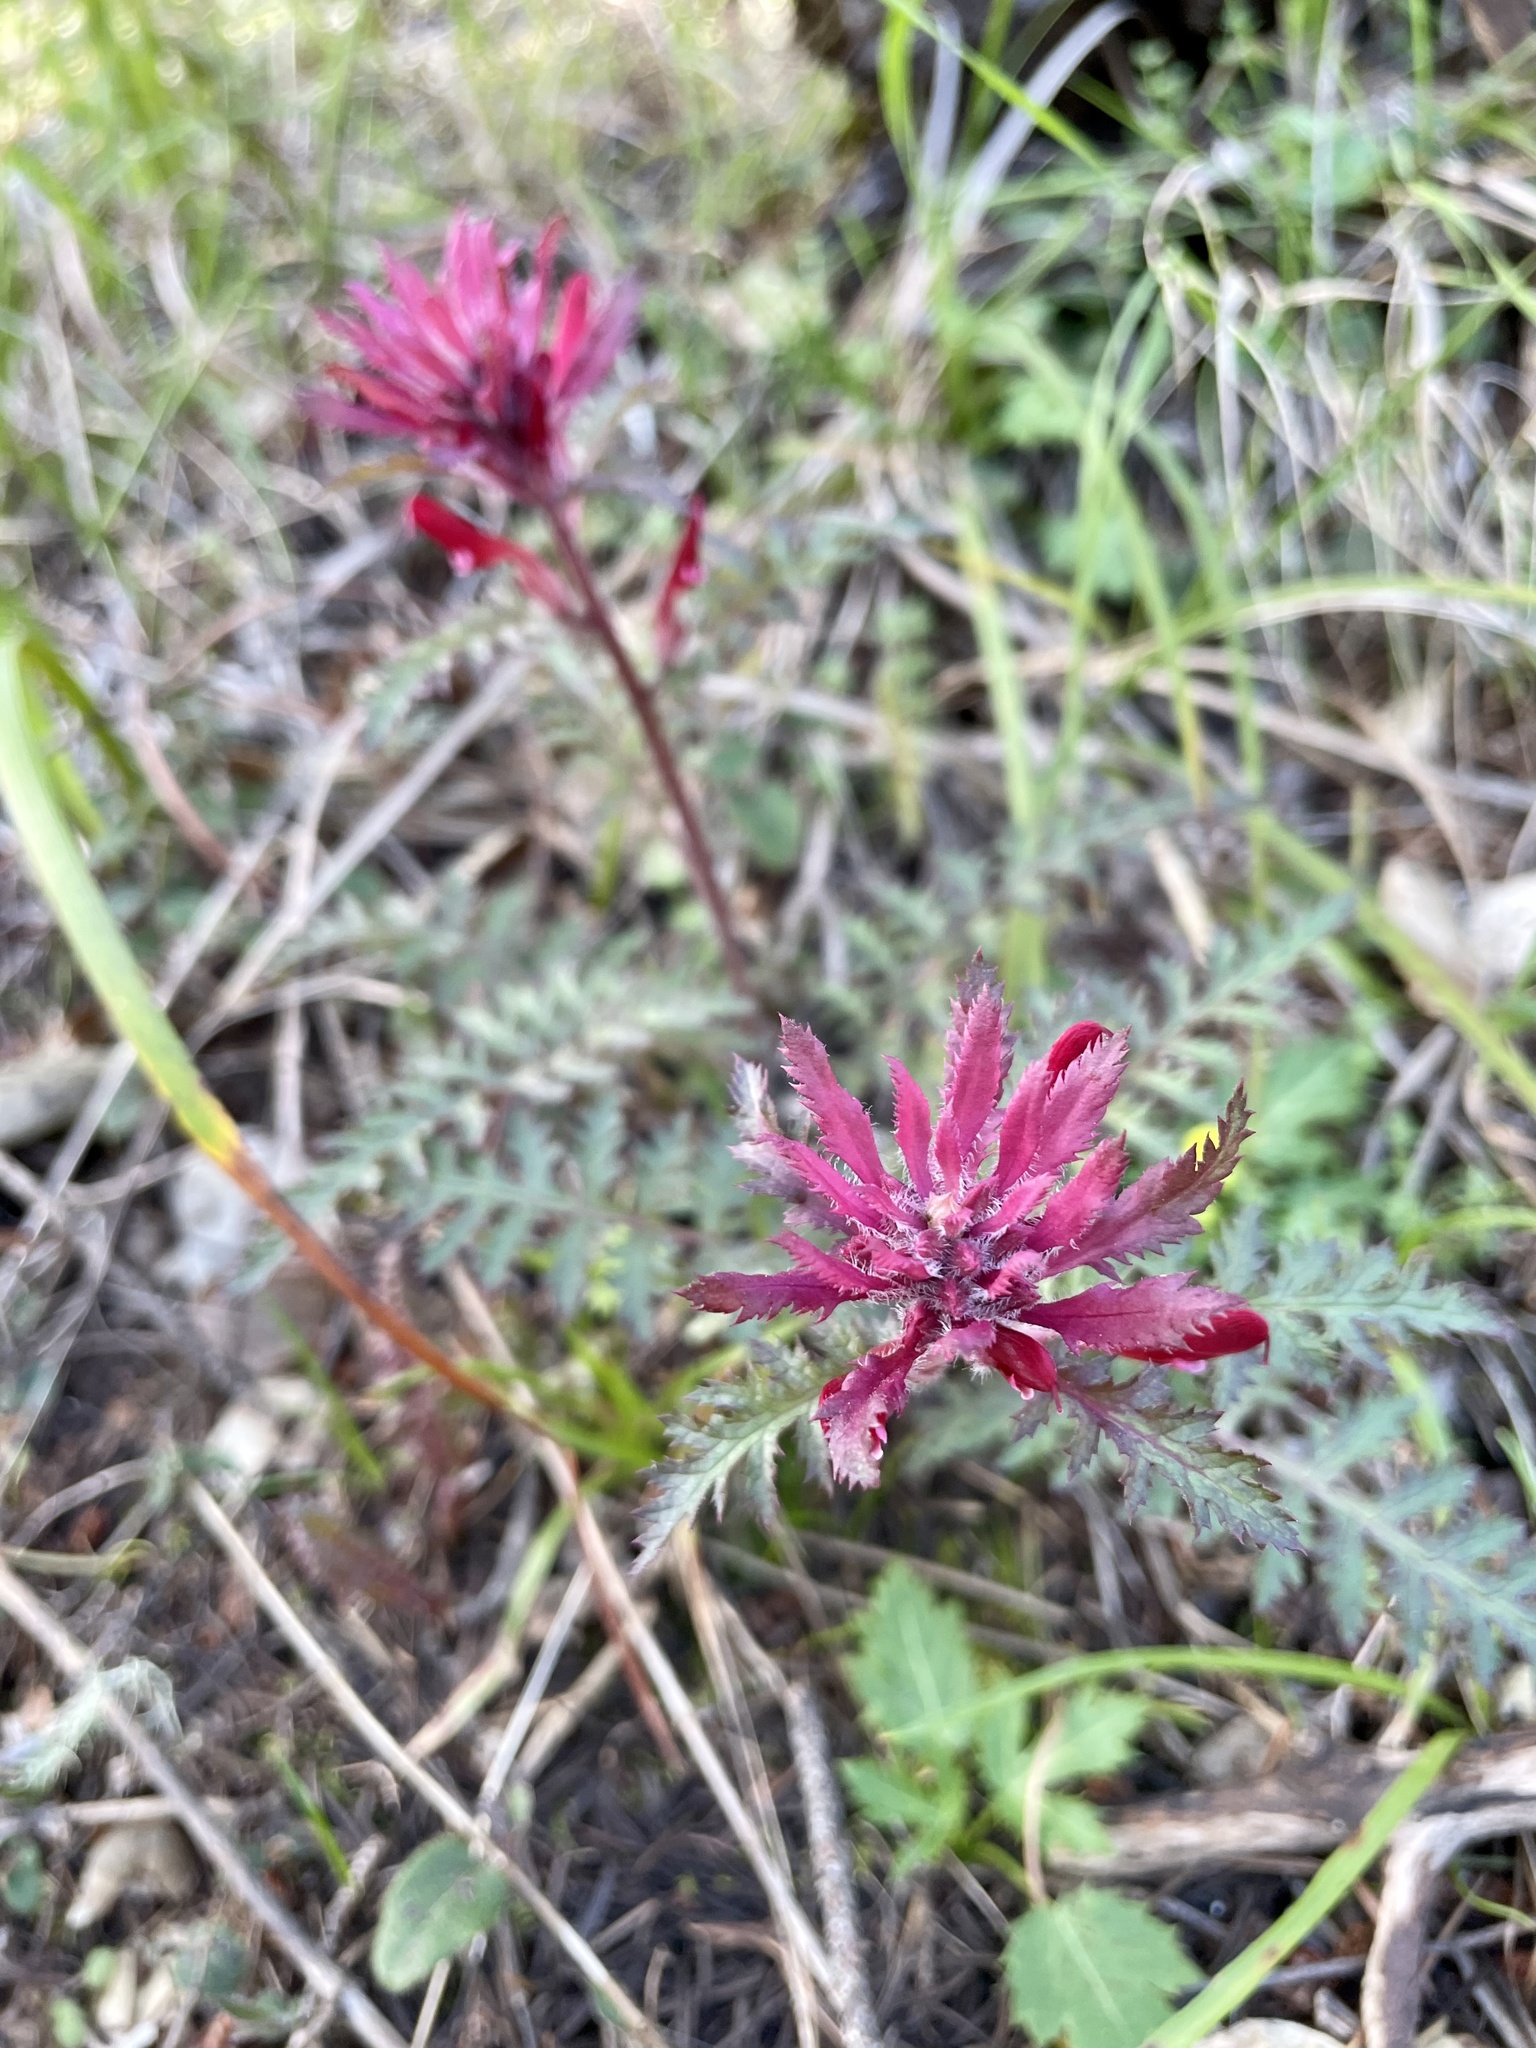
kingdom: Plantae
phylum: Tracheophyta
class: Magnoliopsida
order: Lamiales
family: Orobanchaceae
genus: Pedicularis
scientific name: Pedicularis densiflora
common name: Indian warrior
